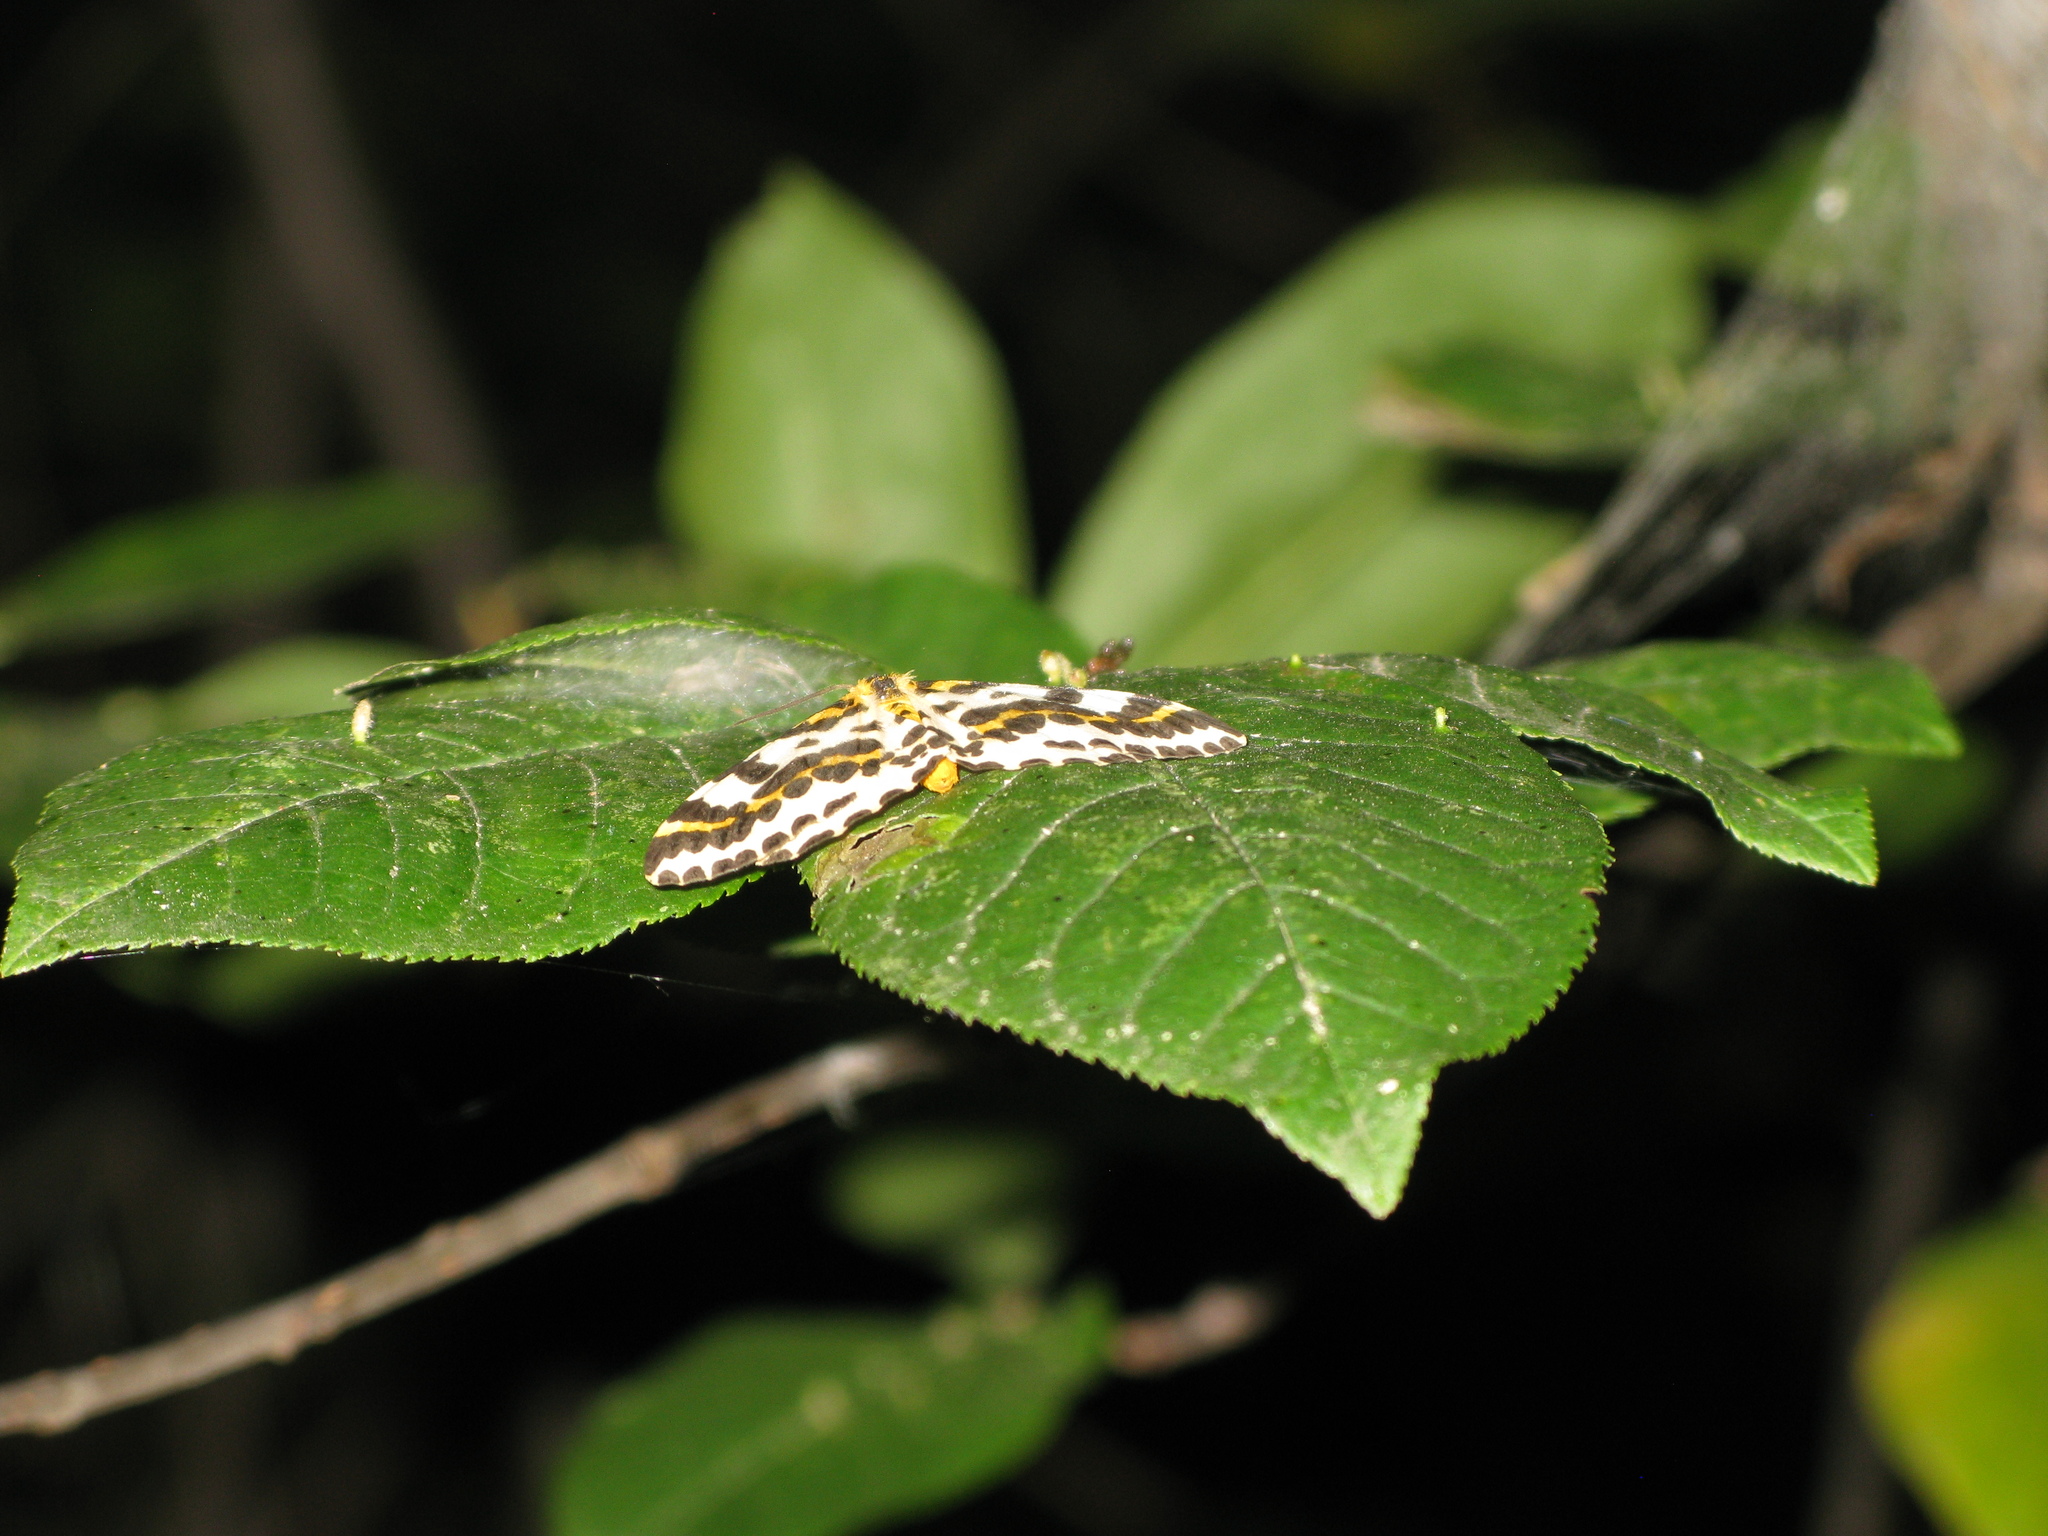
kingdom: Animalia
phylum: Arthropoda
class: Insecta
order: Lepidoptera
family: Geometridae
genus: Abraxas
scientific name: Abraxas grossulariata
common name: Magpie
